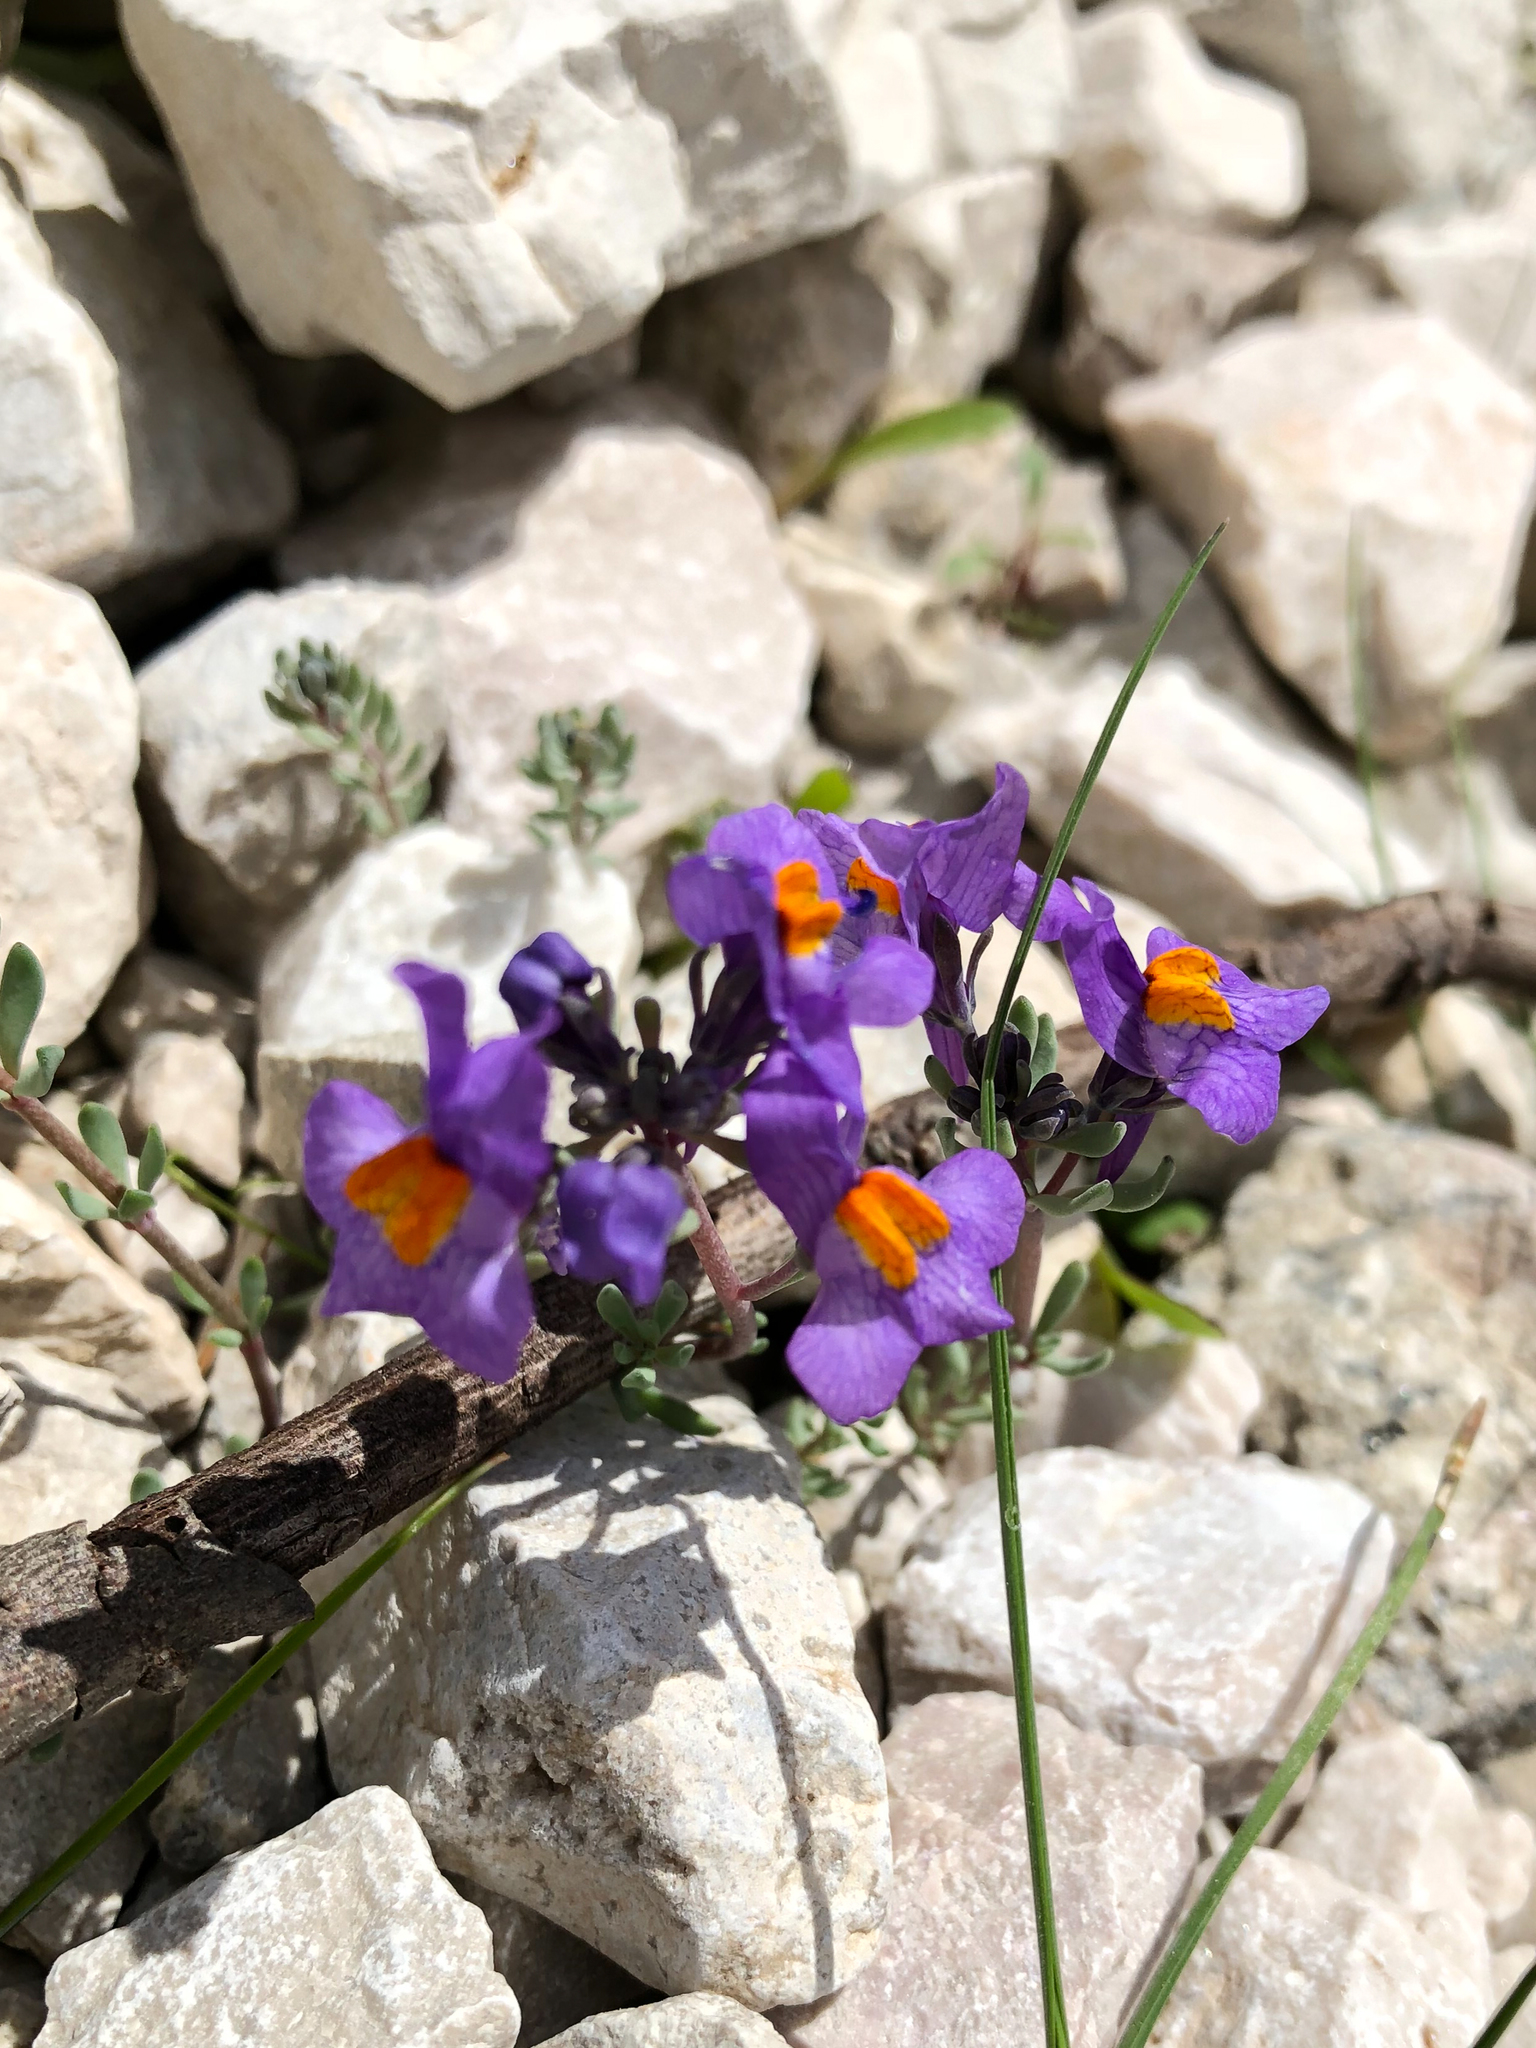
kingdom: Plantae
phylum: Tracheophyta
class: Magnoliopsida
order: Lamiales
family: Plantaginaceae
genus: Linaria
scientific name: Linaria alpina
